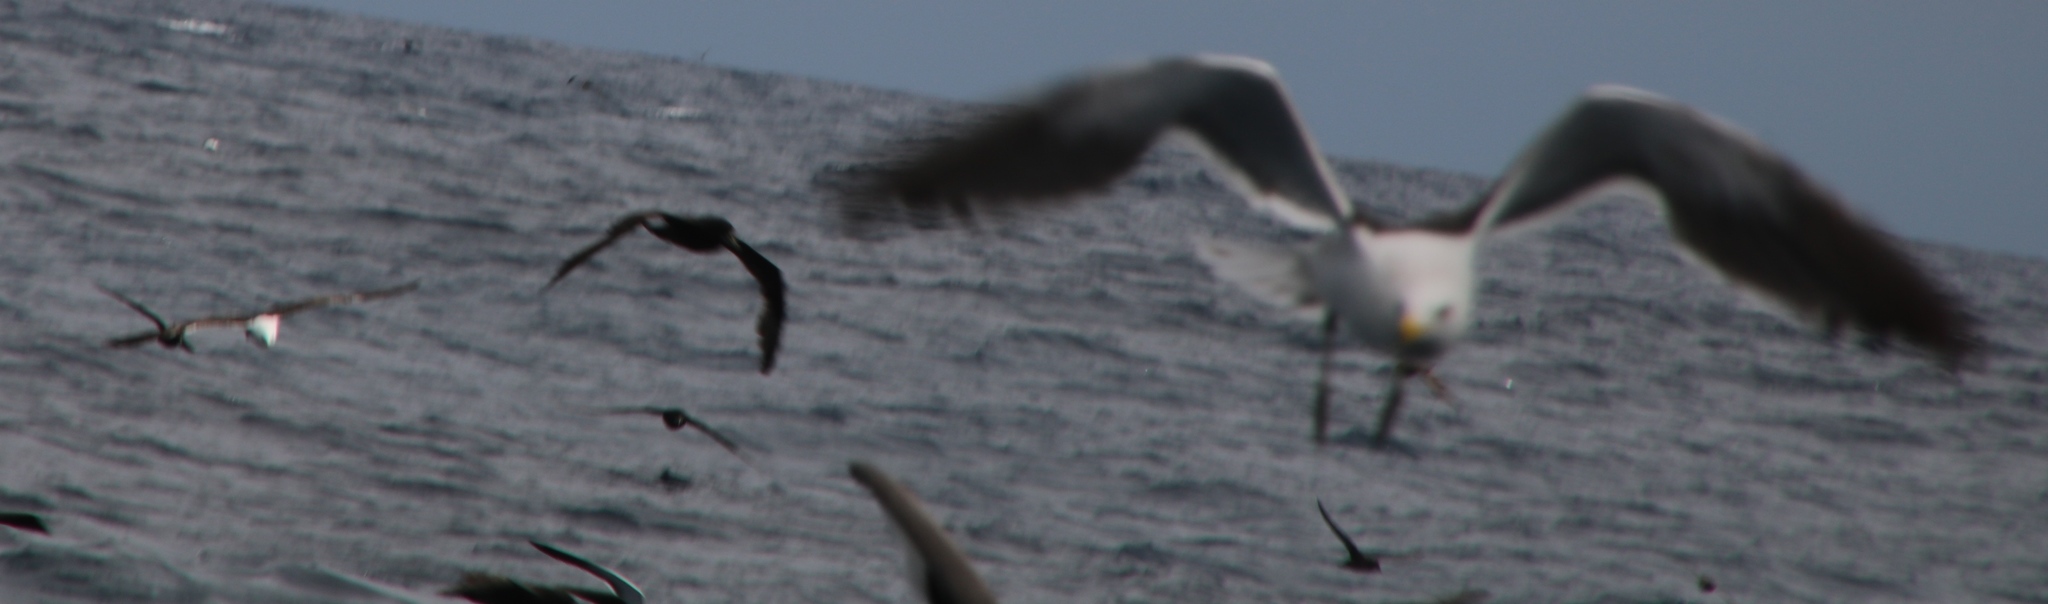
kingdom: Animalia
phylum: Chordata
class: Aves
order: Charadriiformes
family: Laridae
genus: Larus
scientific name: Larus dominicanus
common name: Kelp gull
